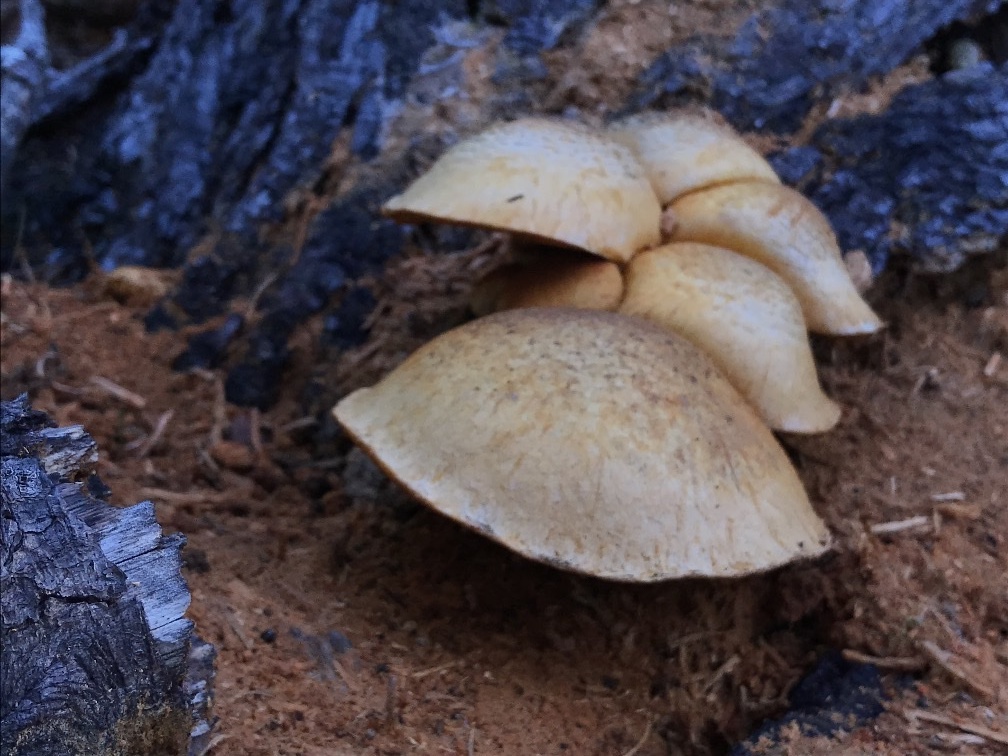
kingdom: Fungi
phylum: Basidiomycota
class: Agaricomycetes
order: Agaricales
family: Hymenogastraceae
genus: Gymnopilus
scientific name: Gymnopilus ventricosus
